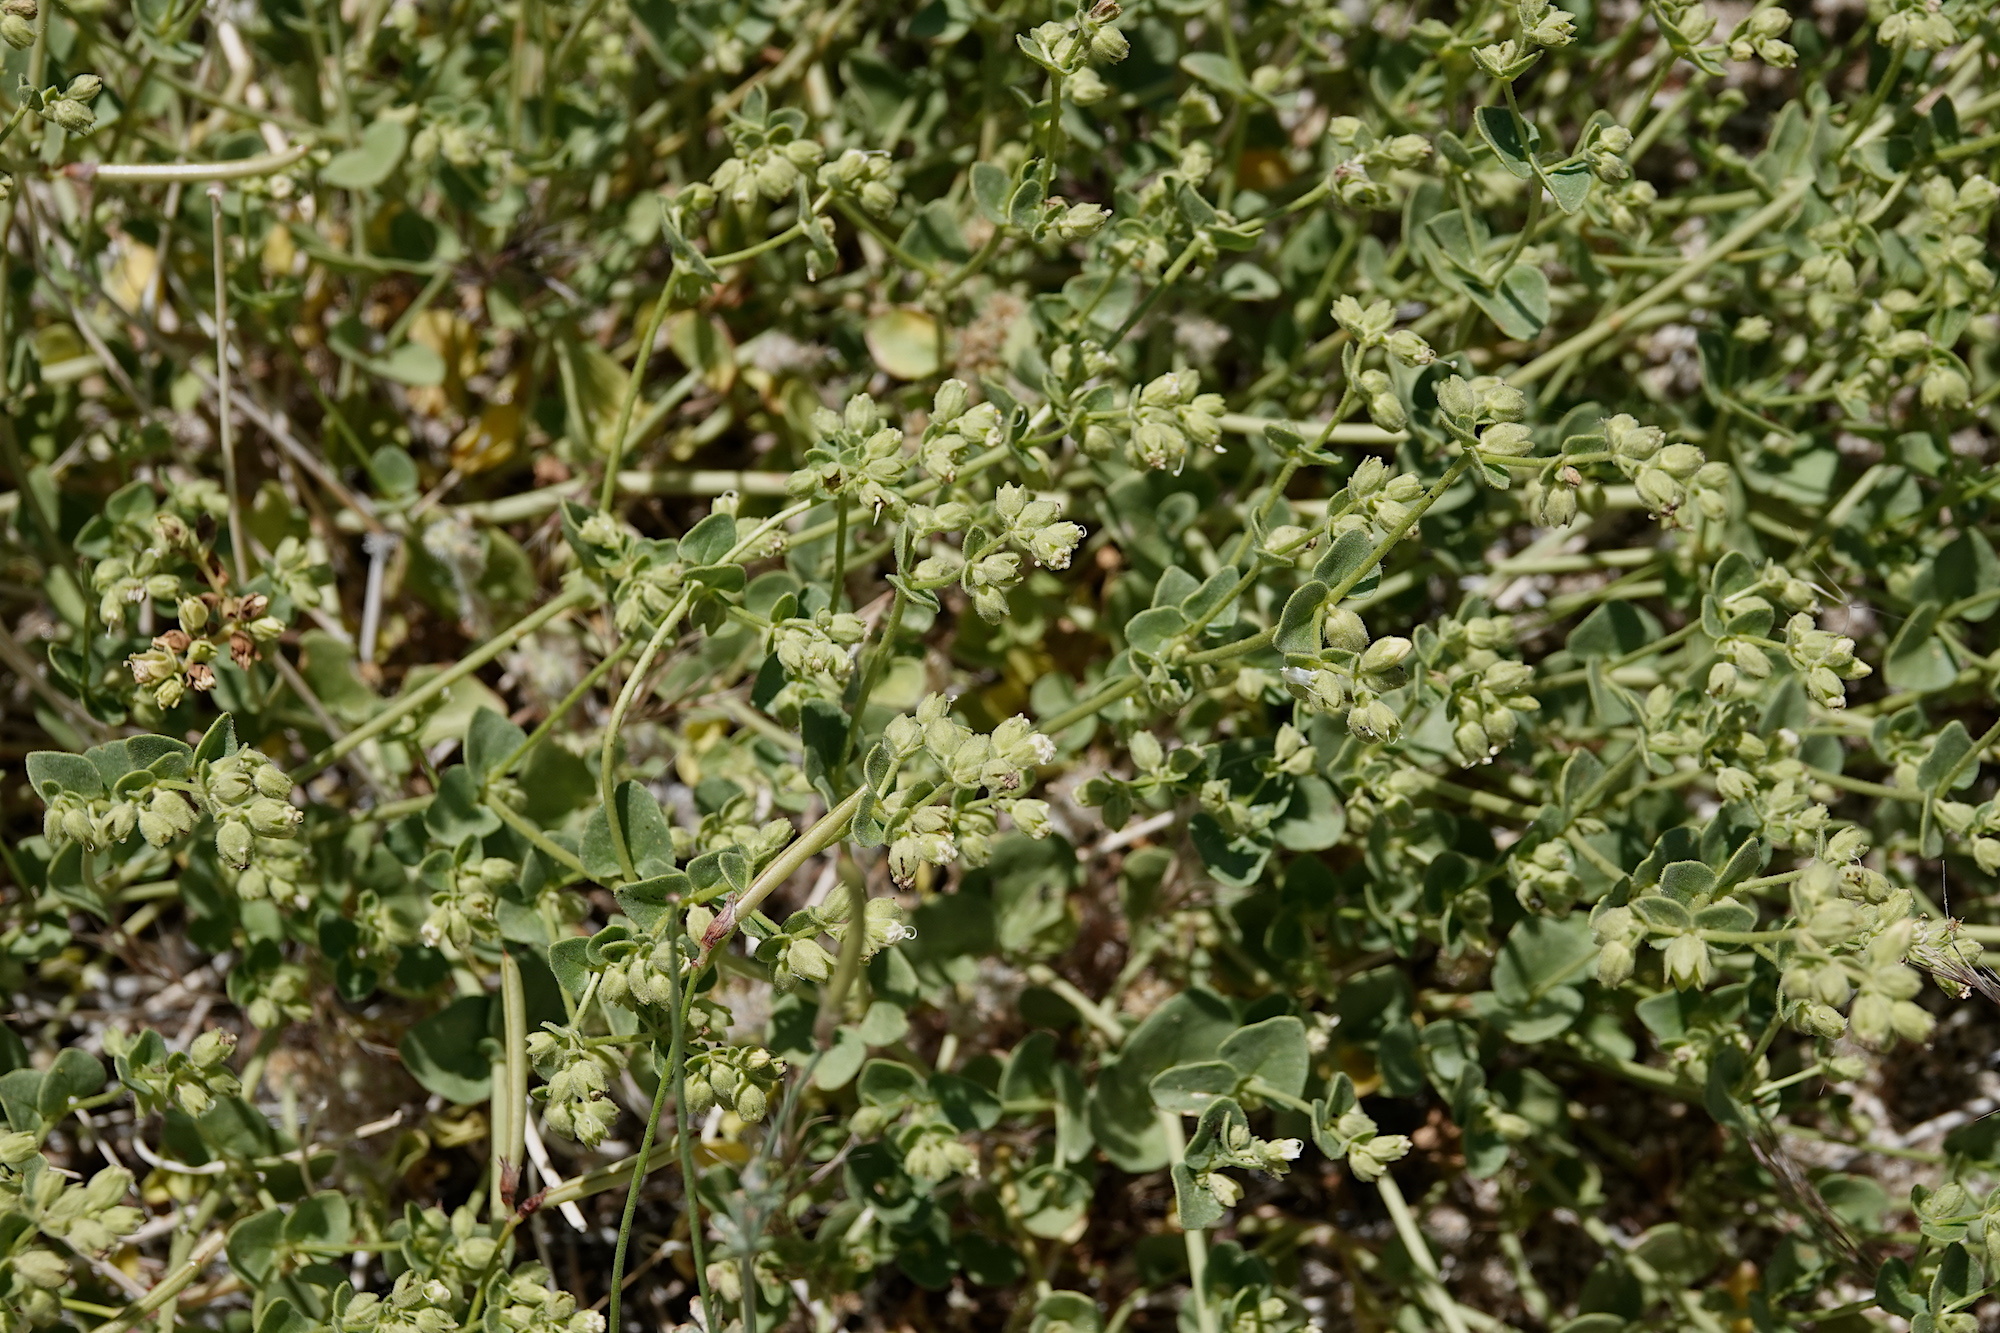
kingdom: Plantae
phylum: Tracheophyta
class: Magnoliopsida
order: Caryophyllales
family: Nyctaginaceae
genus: Mirabilis
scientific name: Mirabilis laevis
